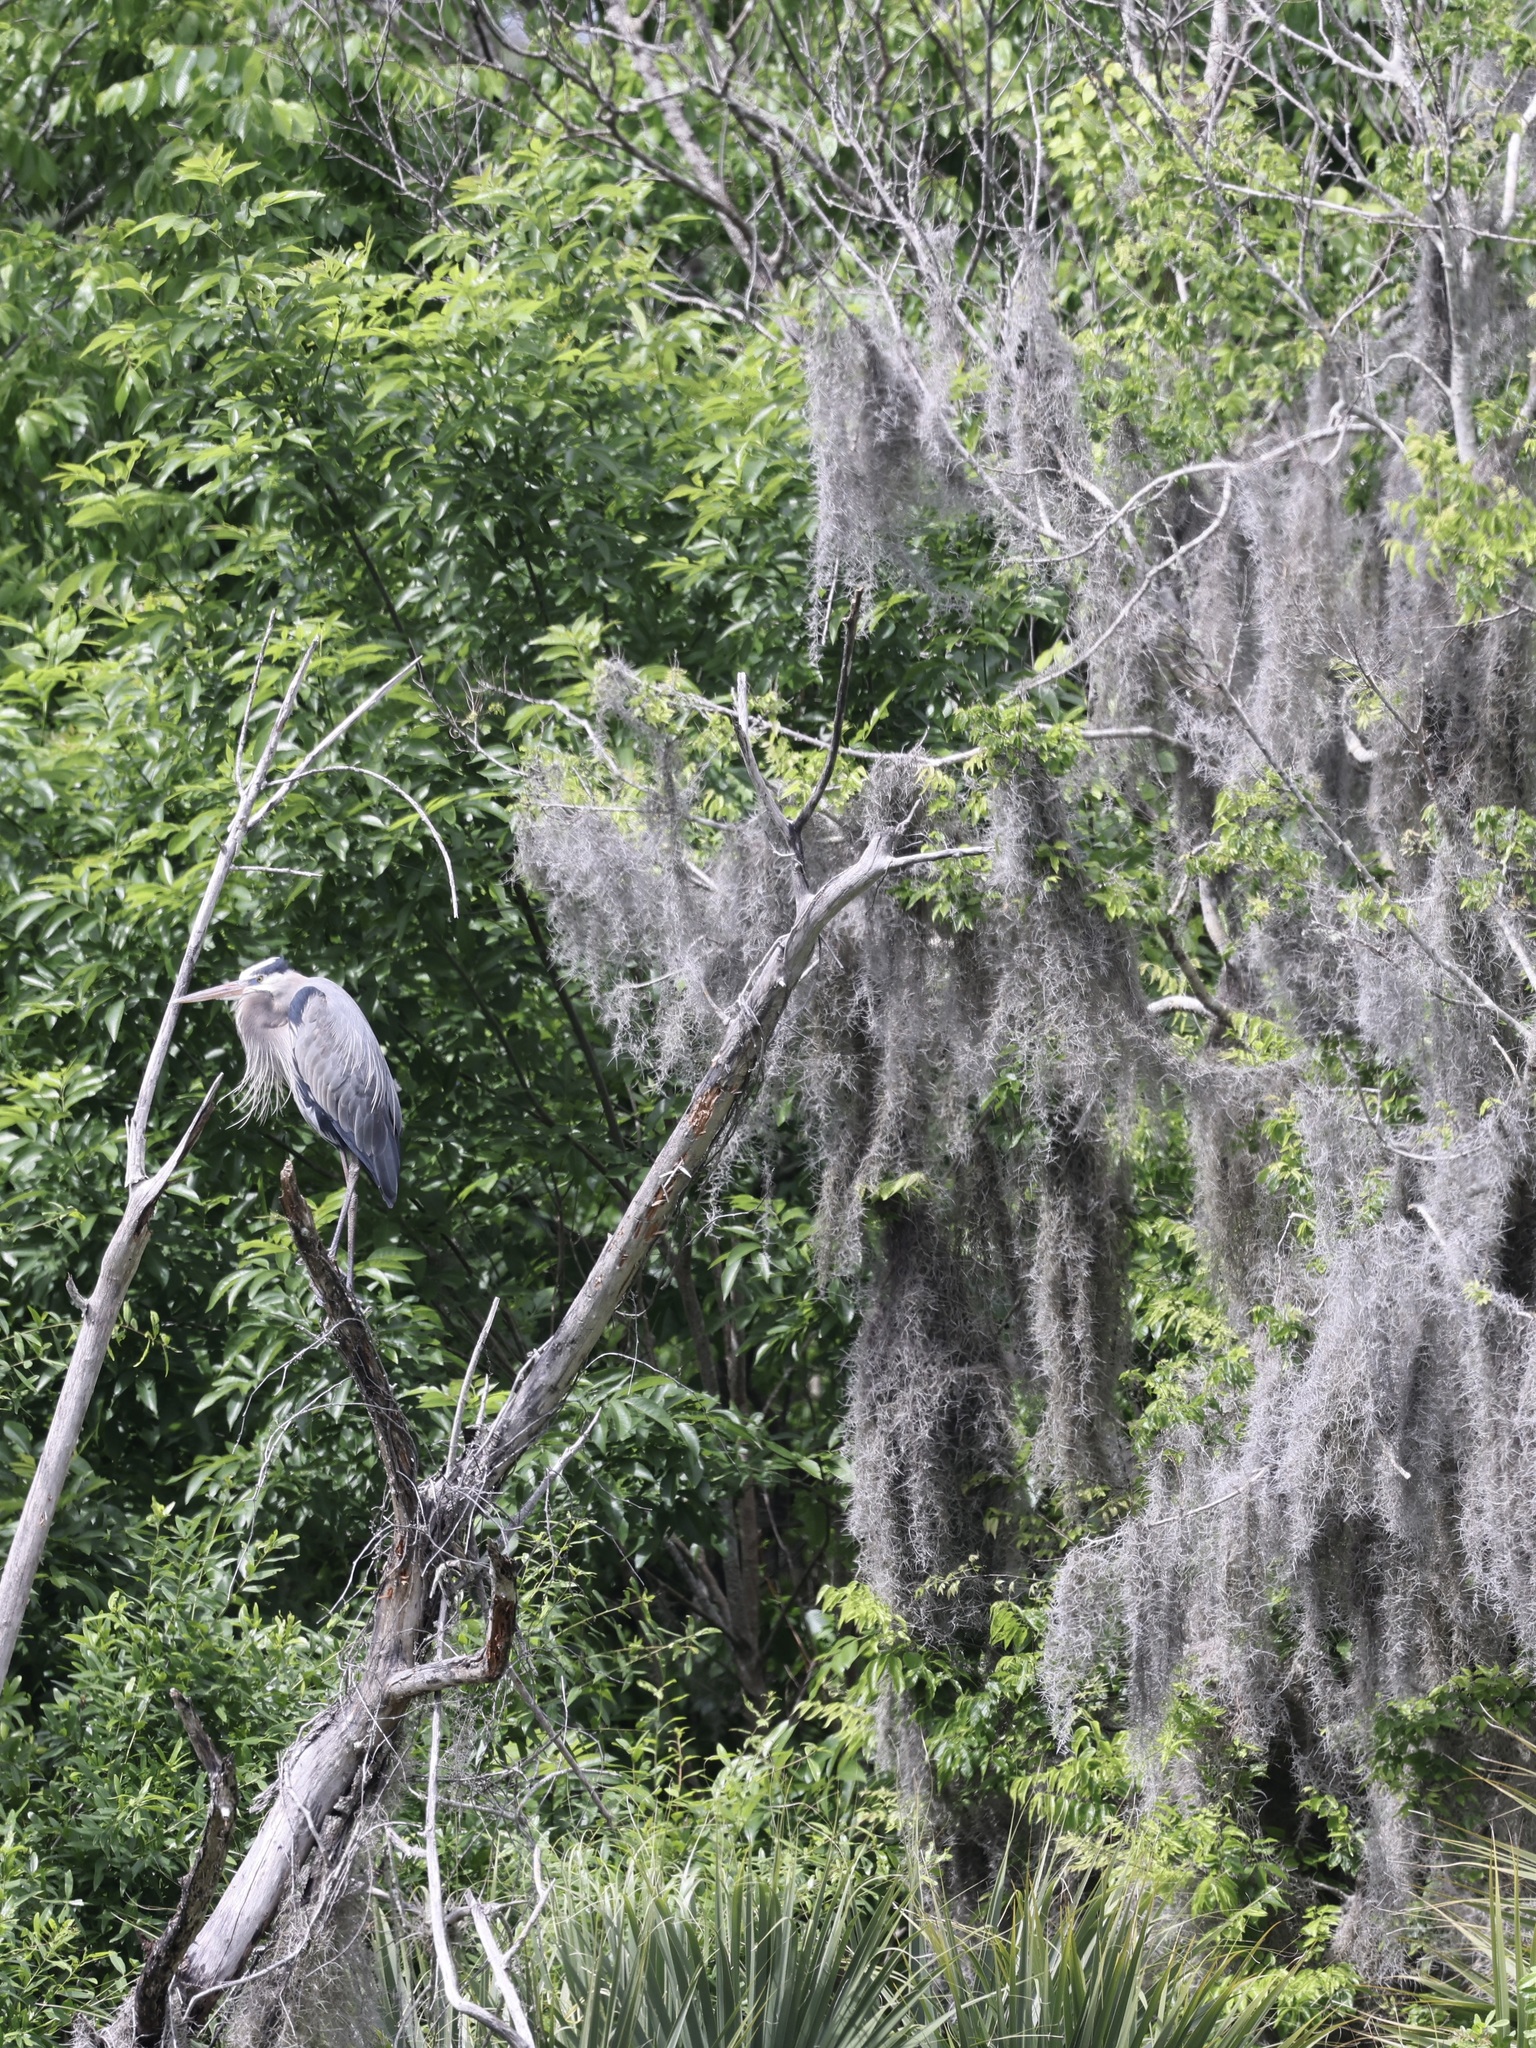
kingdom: Animalia
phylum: Chordata
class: Aves
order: Pelecaniformes
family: Ardeidae
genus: Ardea
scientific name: Ardea herodias
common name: Great blue heron
